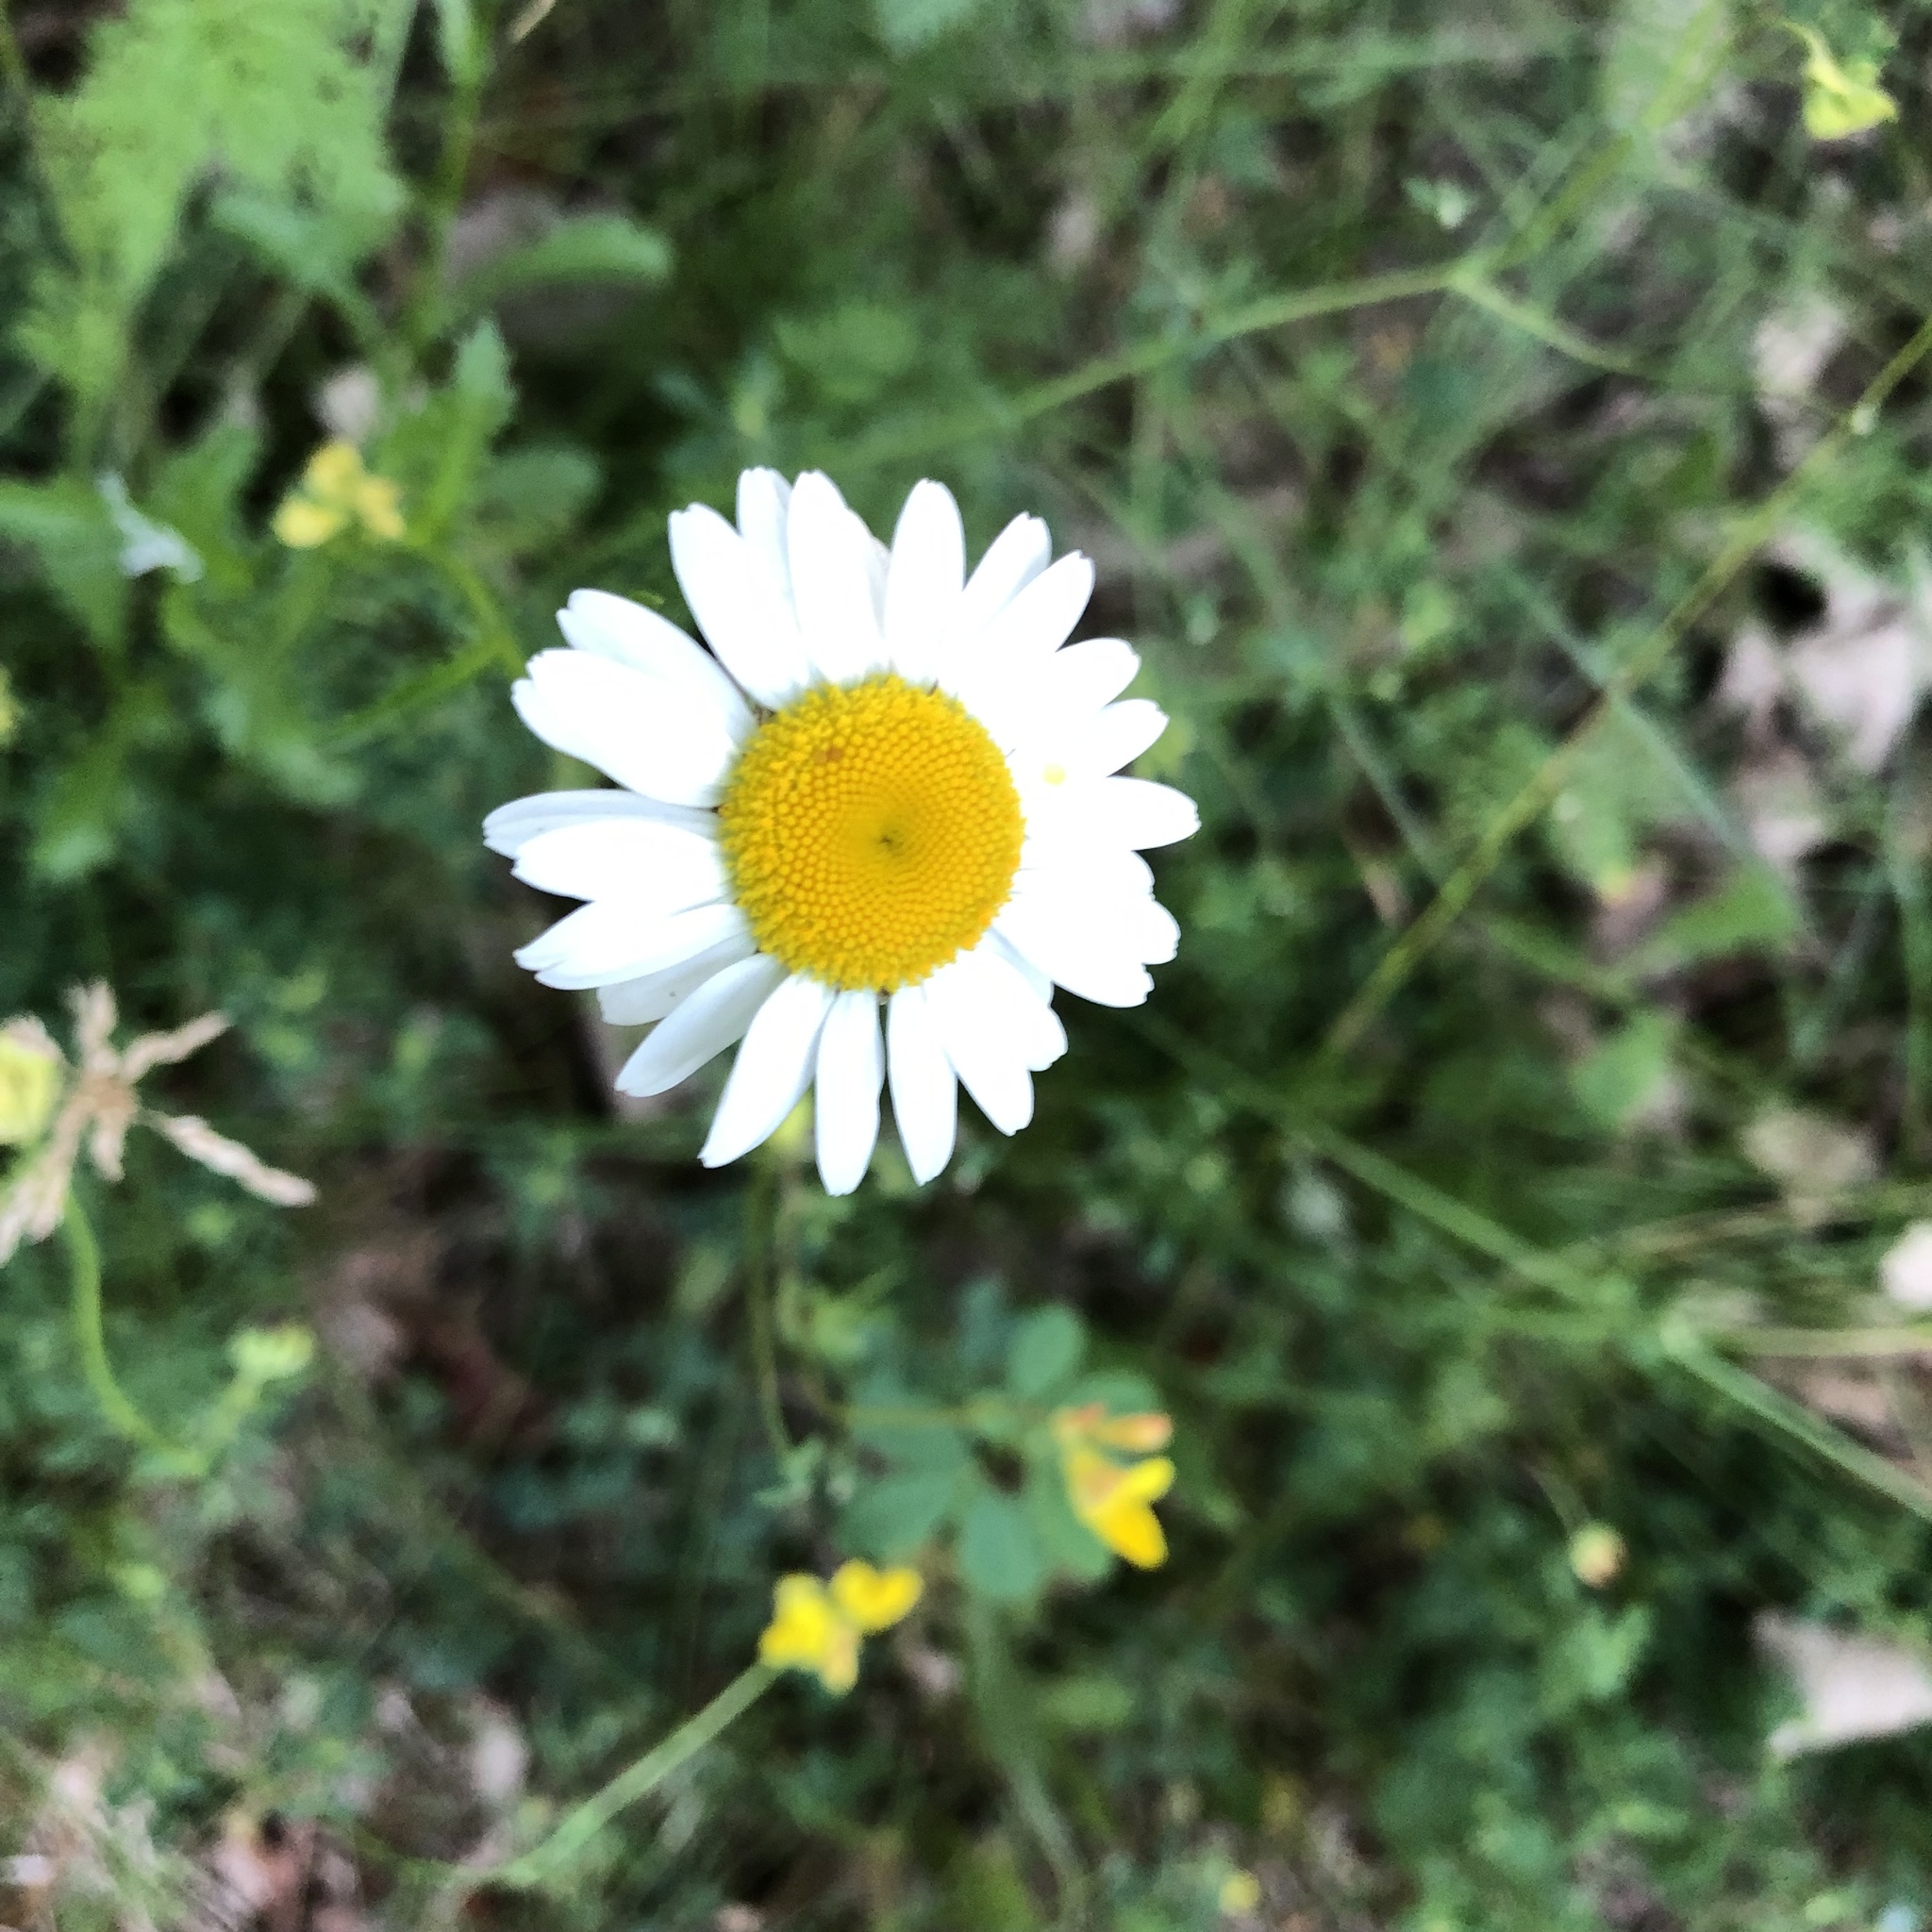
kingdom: Plantae
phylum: Tracheophyta
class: Magnoliopsida
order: Asterales
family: Asteraceae
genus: Leucanthemum
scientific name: Leucanthemum vulgare
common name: Oxeye daisy
